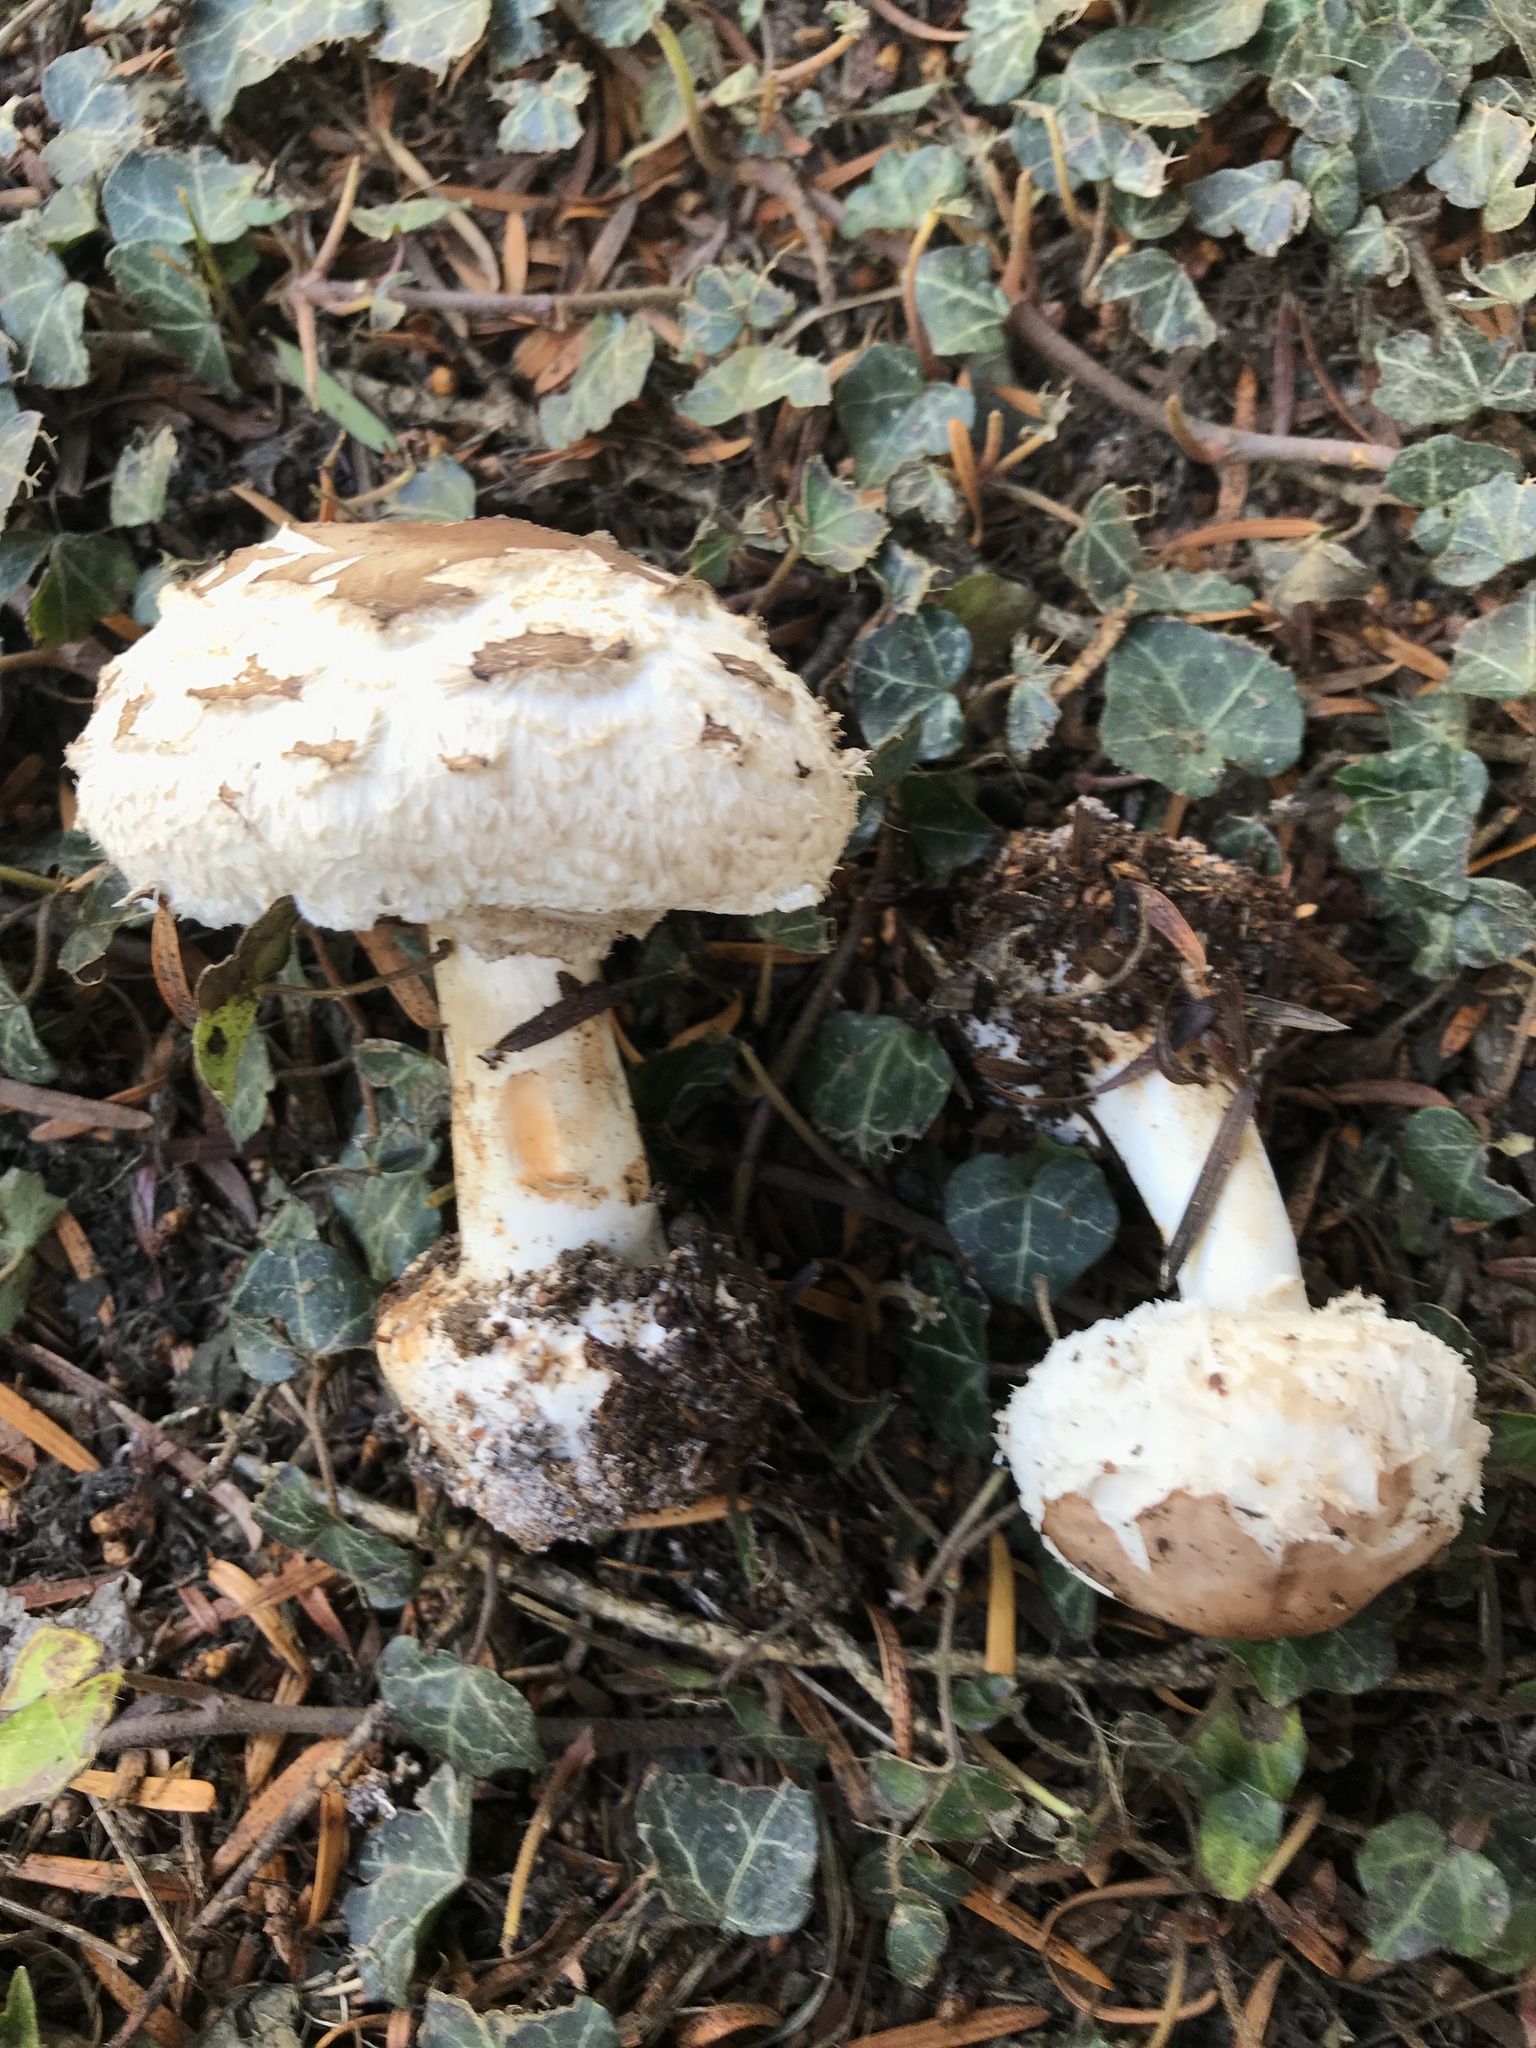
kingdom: Fungi
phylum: Basidiomycota
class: Agaricomycetes
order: Agaricales
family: Agaricaceae
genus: Chlorophyllum
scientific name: Chlorophyllum brunneum
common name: Brown parasol
